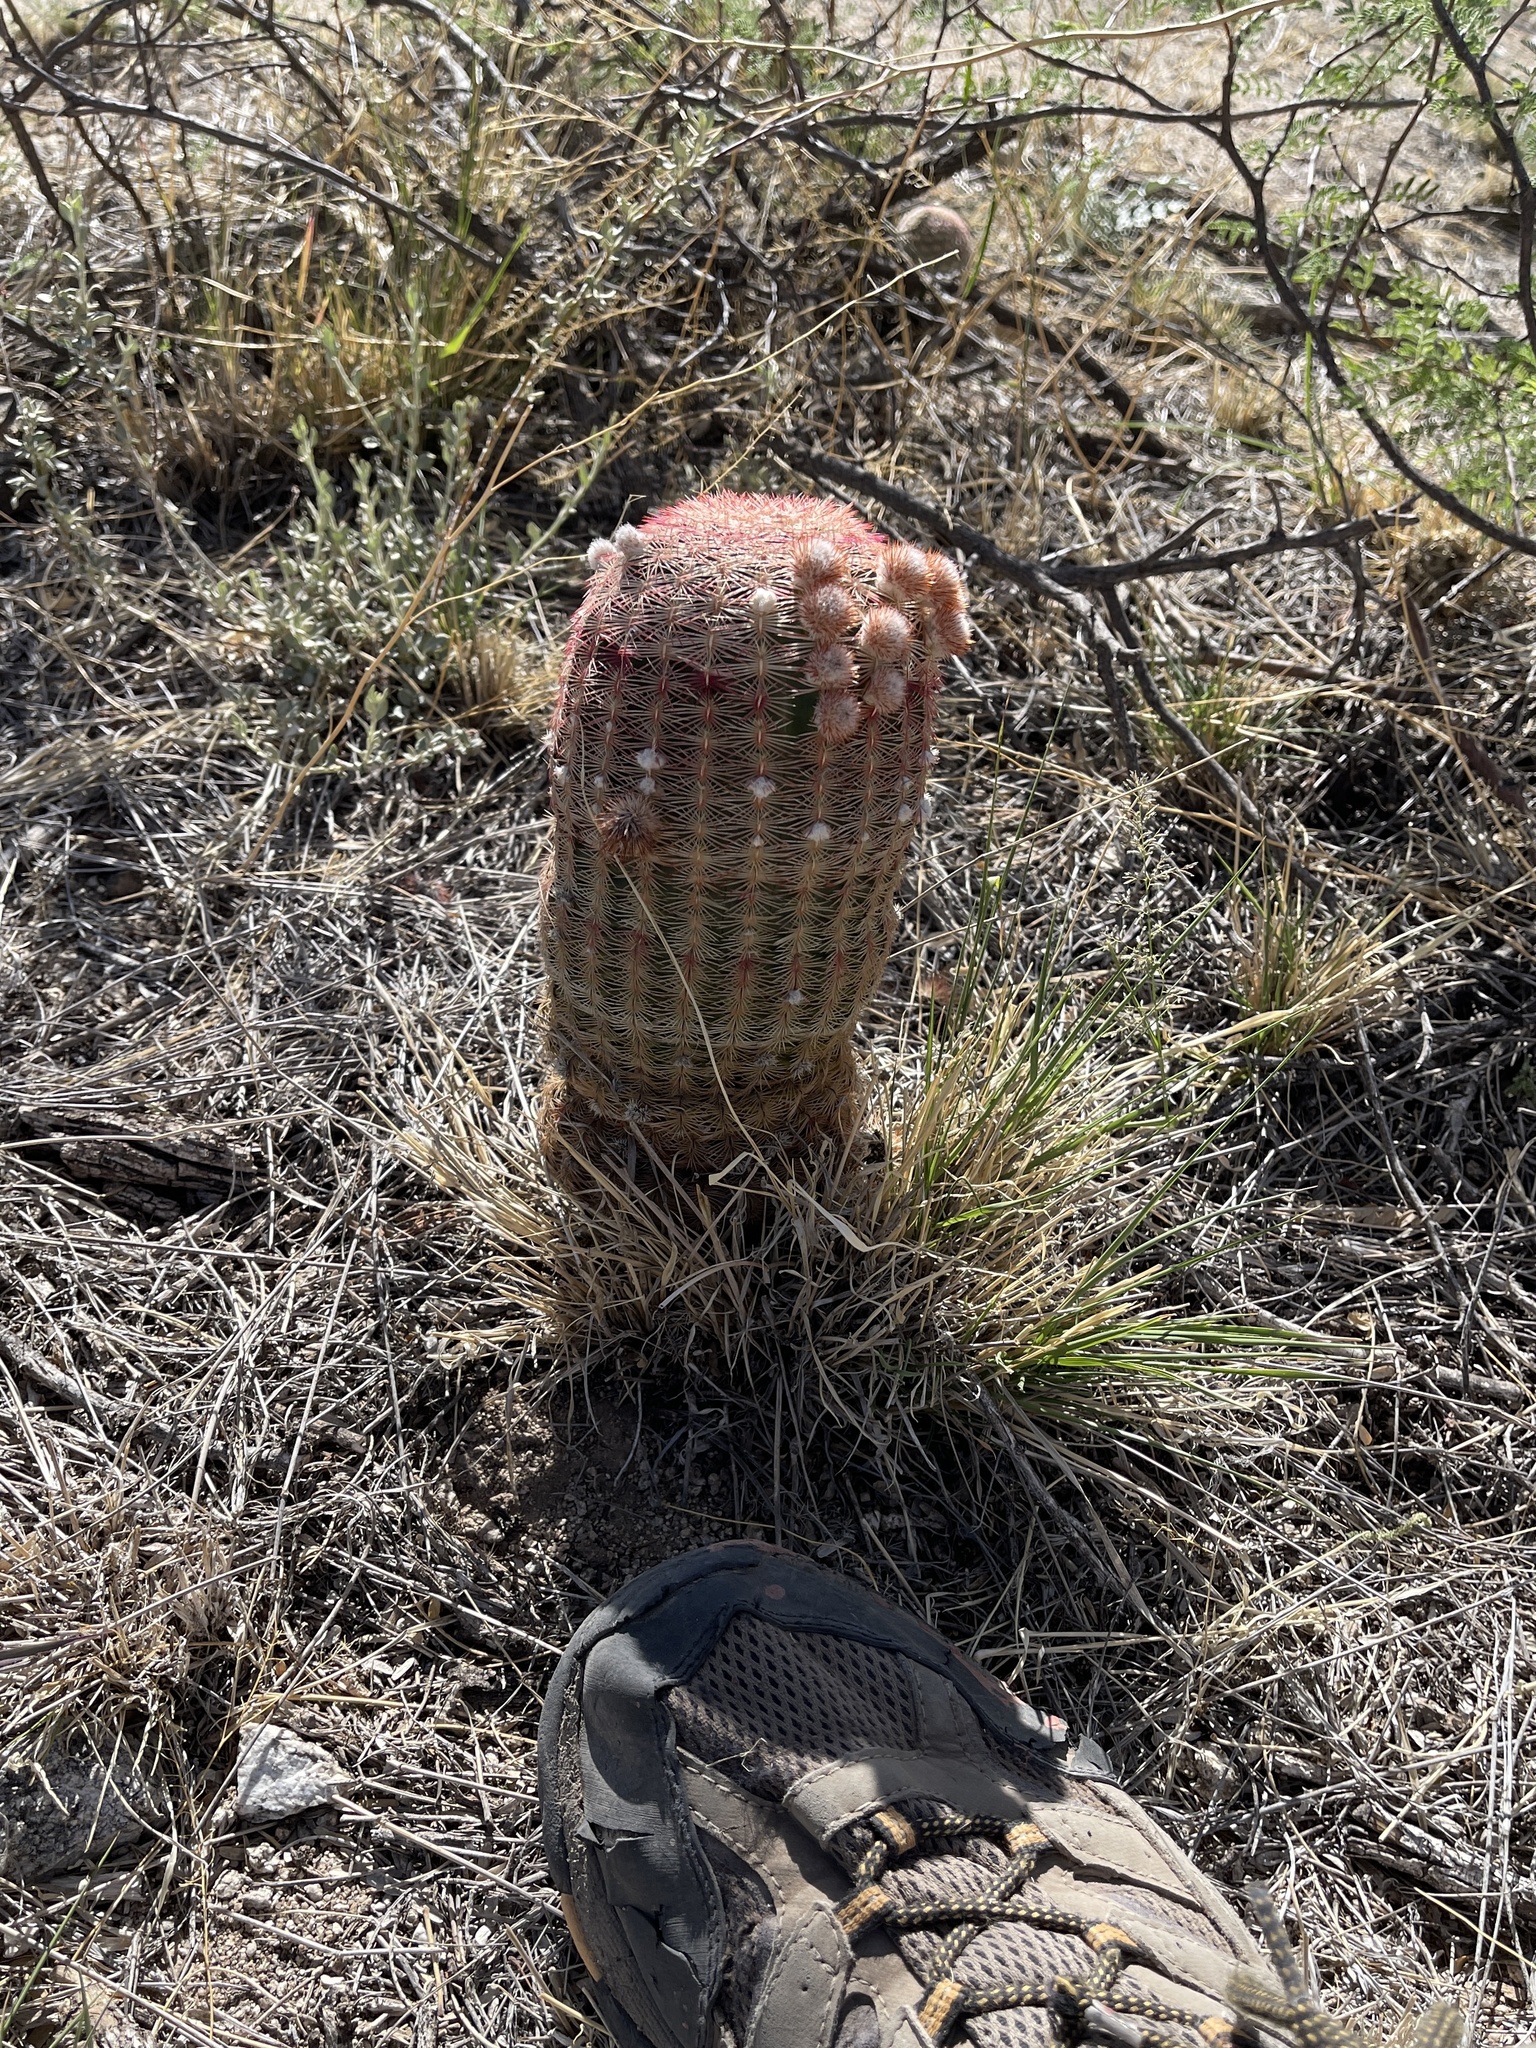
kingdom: Plantae
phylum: Tracheophyta
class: Magnoliopsida
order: Caryophyllales
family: Cactaceae
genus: Echinocereus
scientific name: Echinocereus rigidissimus
